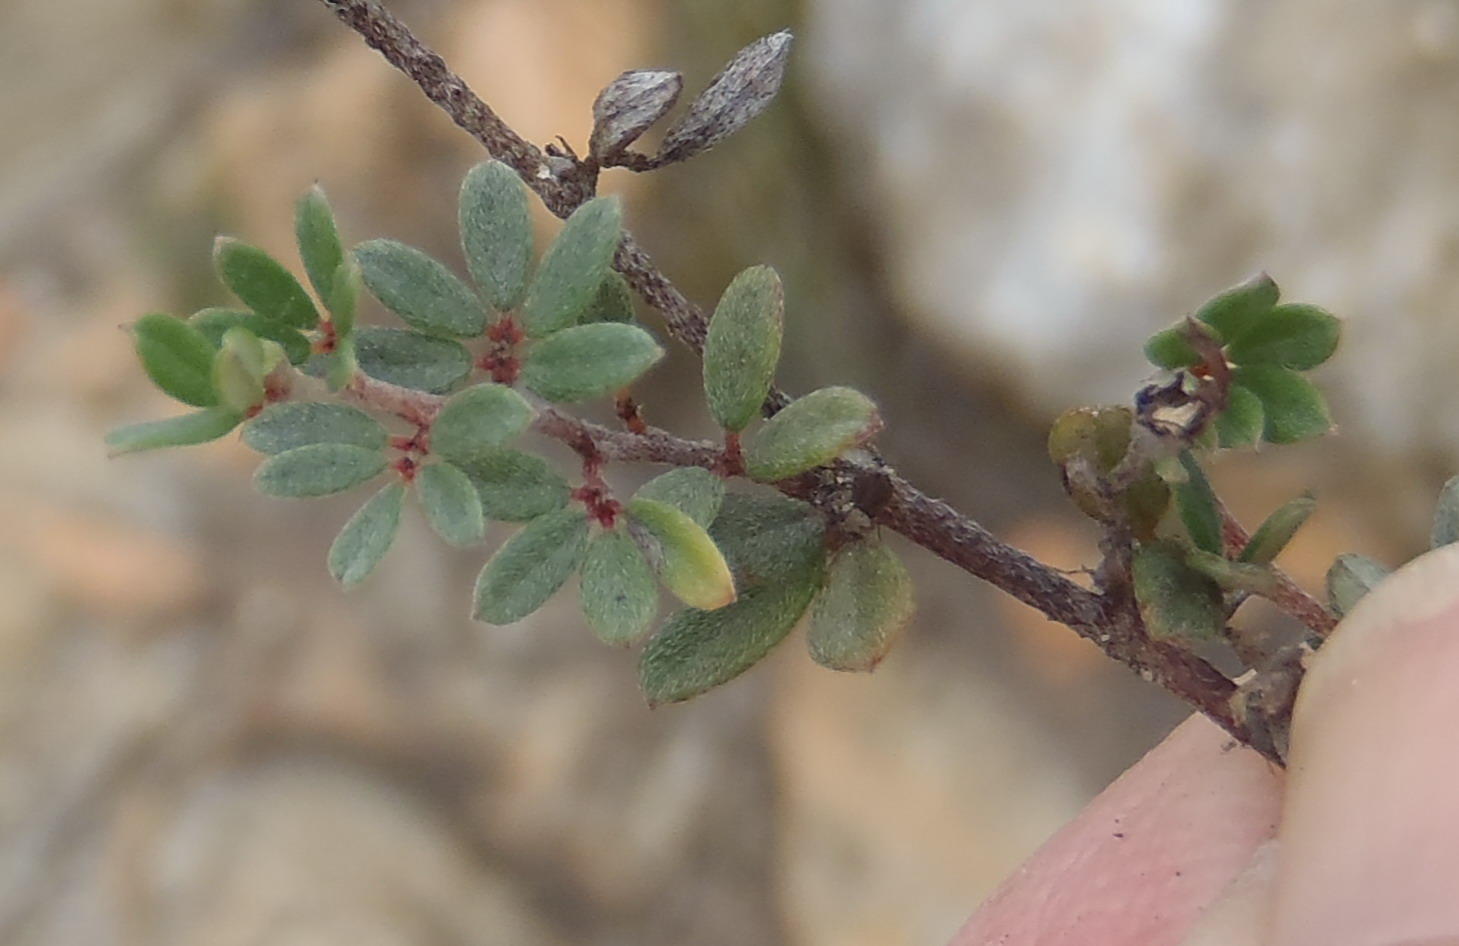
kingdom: Plantae
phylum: Tracheophyta
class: Magnoliopsida
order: Fabales
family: Fabaceae
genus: Indigofera
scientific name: Indigofera
